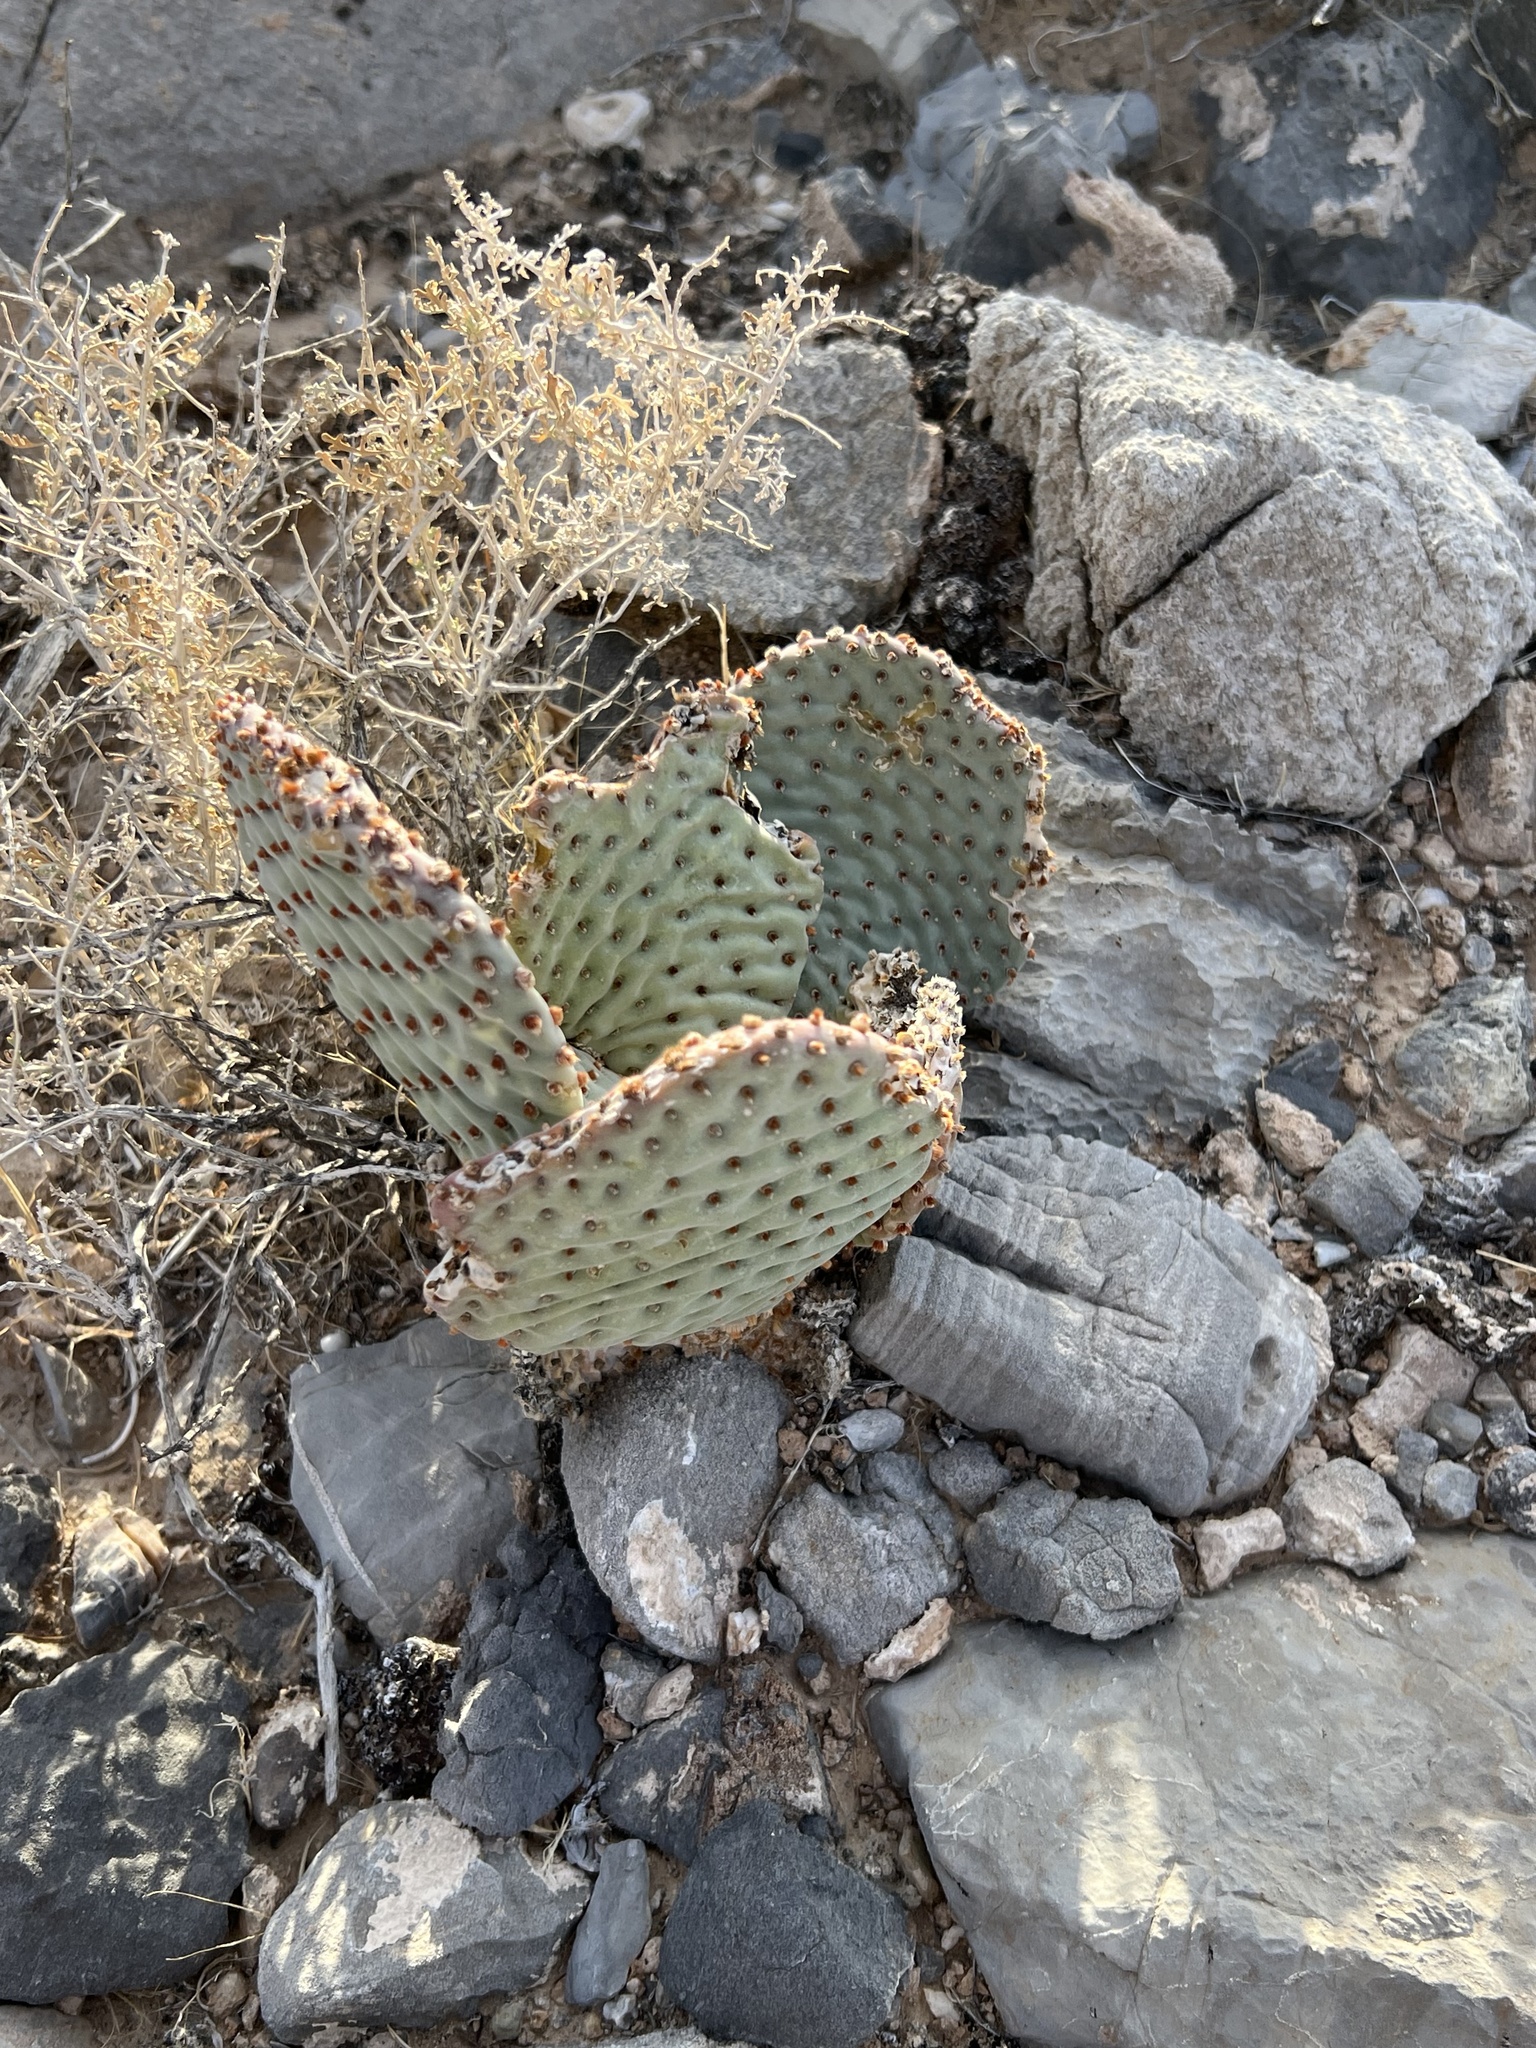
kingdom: Plantae
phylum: Tracheophyta
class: Magnoliopsida
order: Caryophyllales
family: Cactaceae
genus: Opuntia
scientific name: Opuntia basilaris
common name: Beavertail prickly-pear
